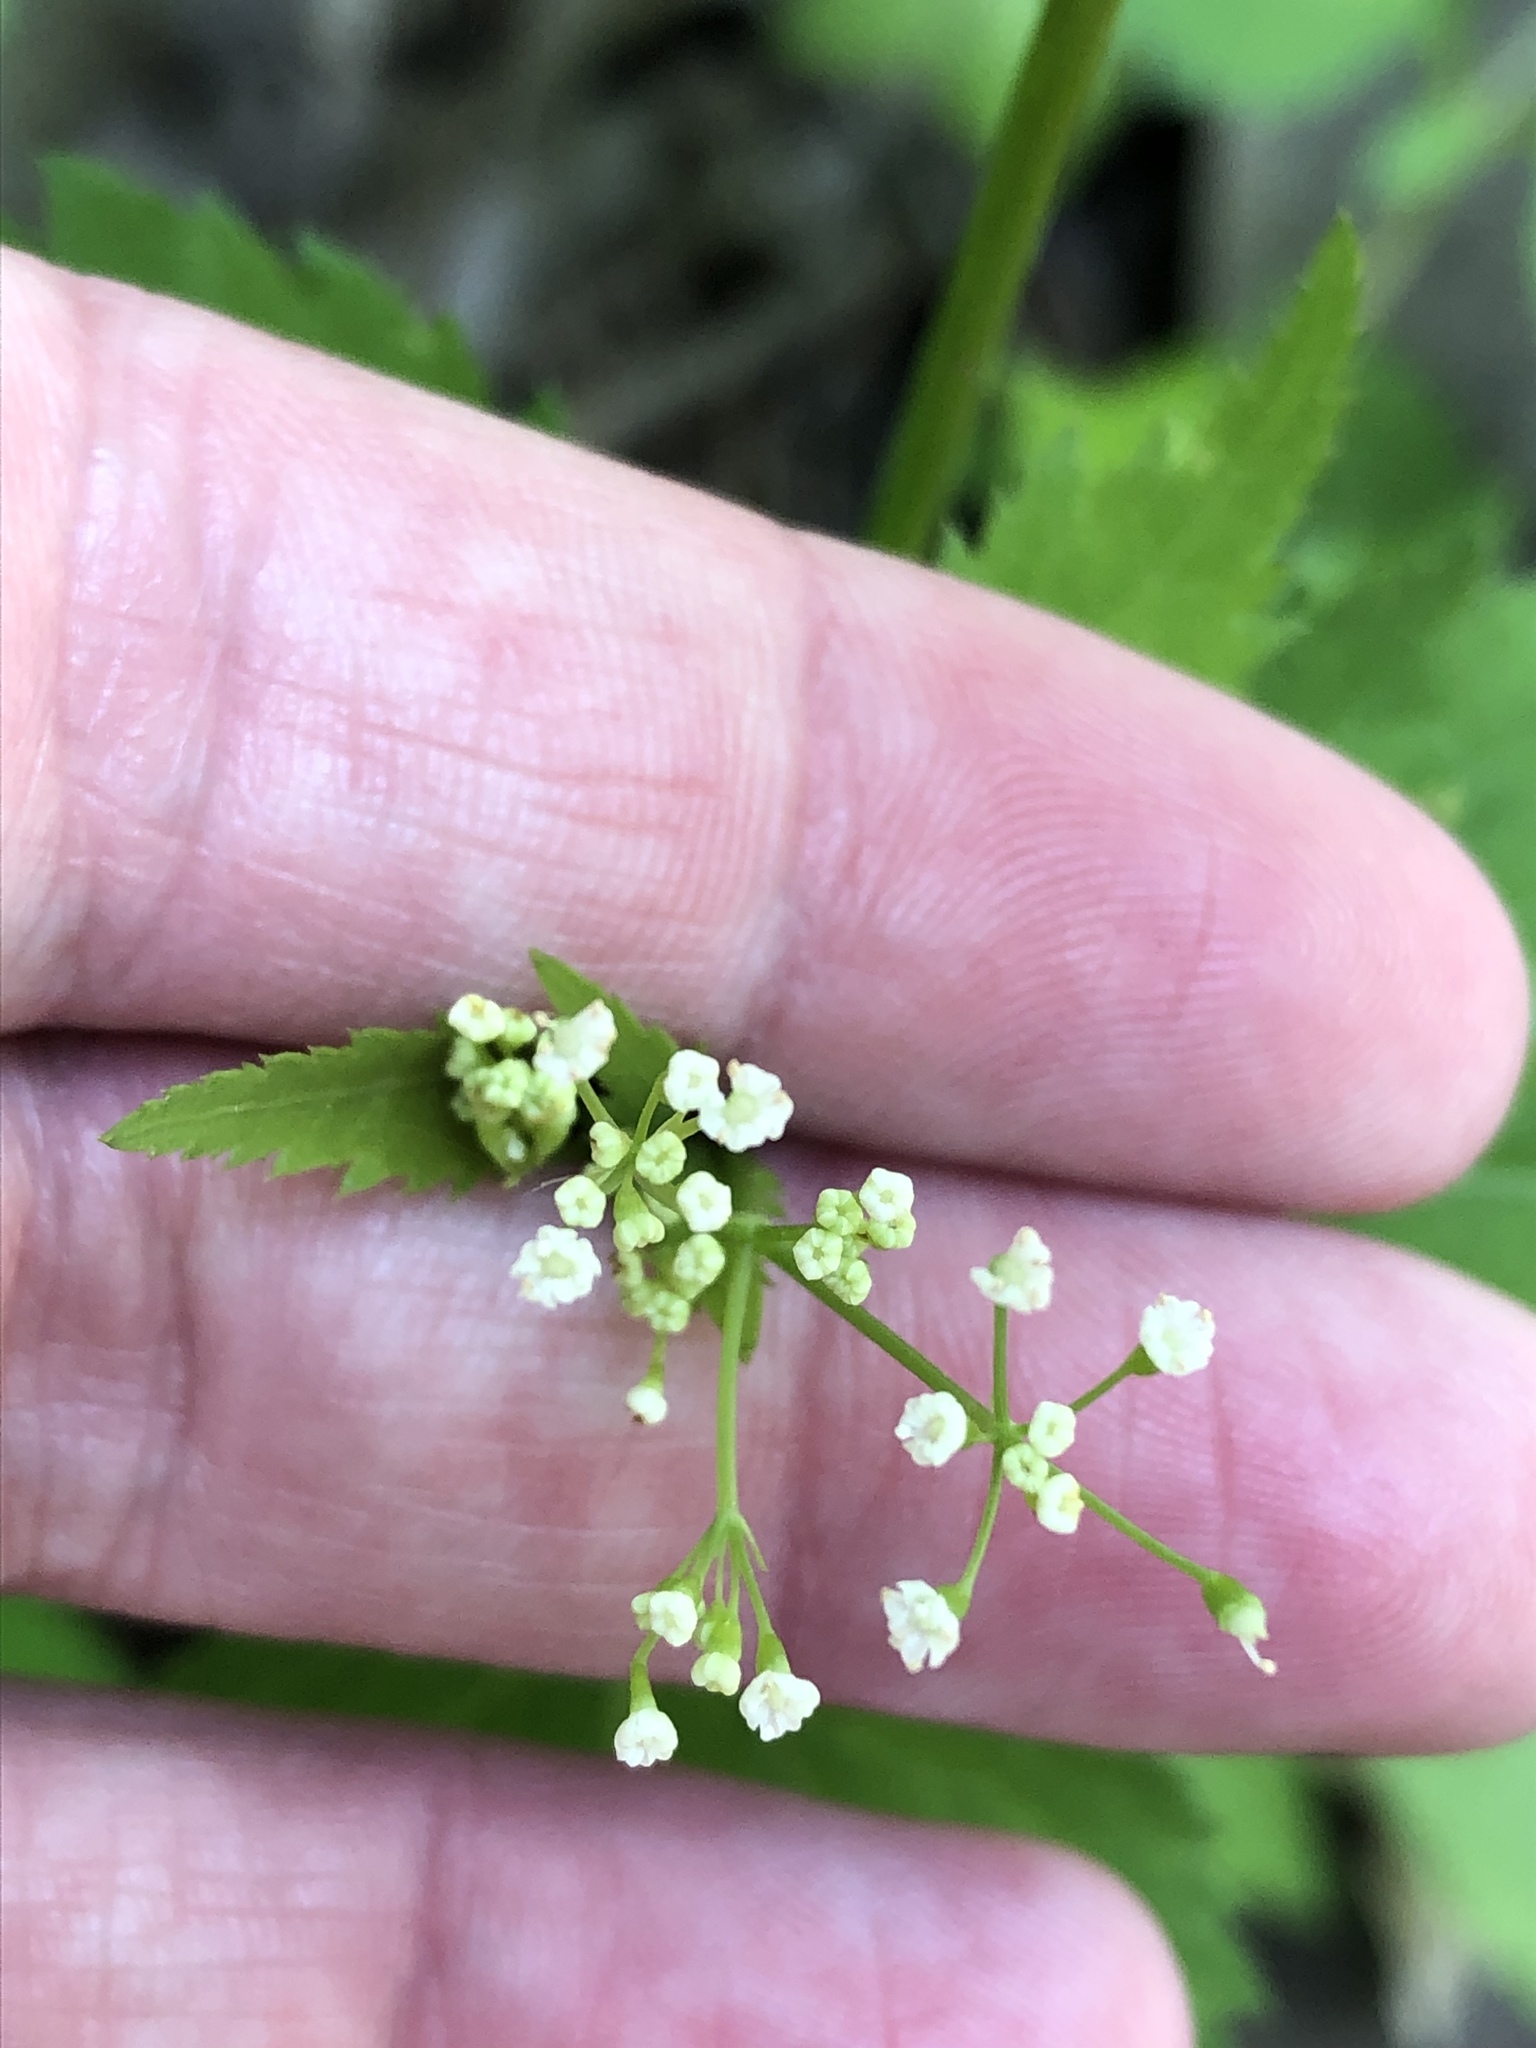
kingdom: Plantae
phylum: Tracheophyta
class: Magnoliopsida
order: Apiales
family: Apiaceae
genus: Cryptotaenia
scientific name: Cryptotaenia canadensis
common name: Honewort
